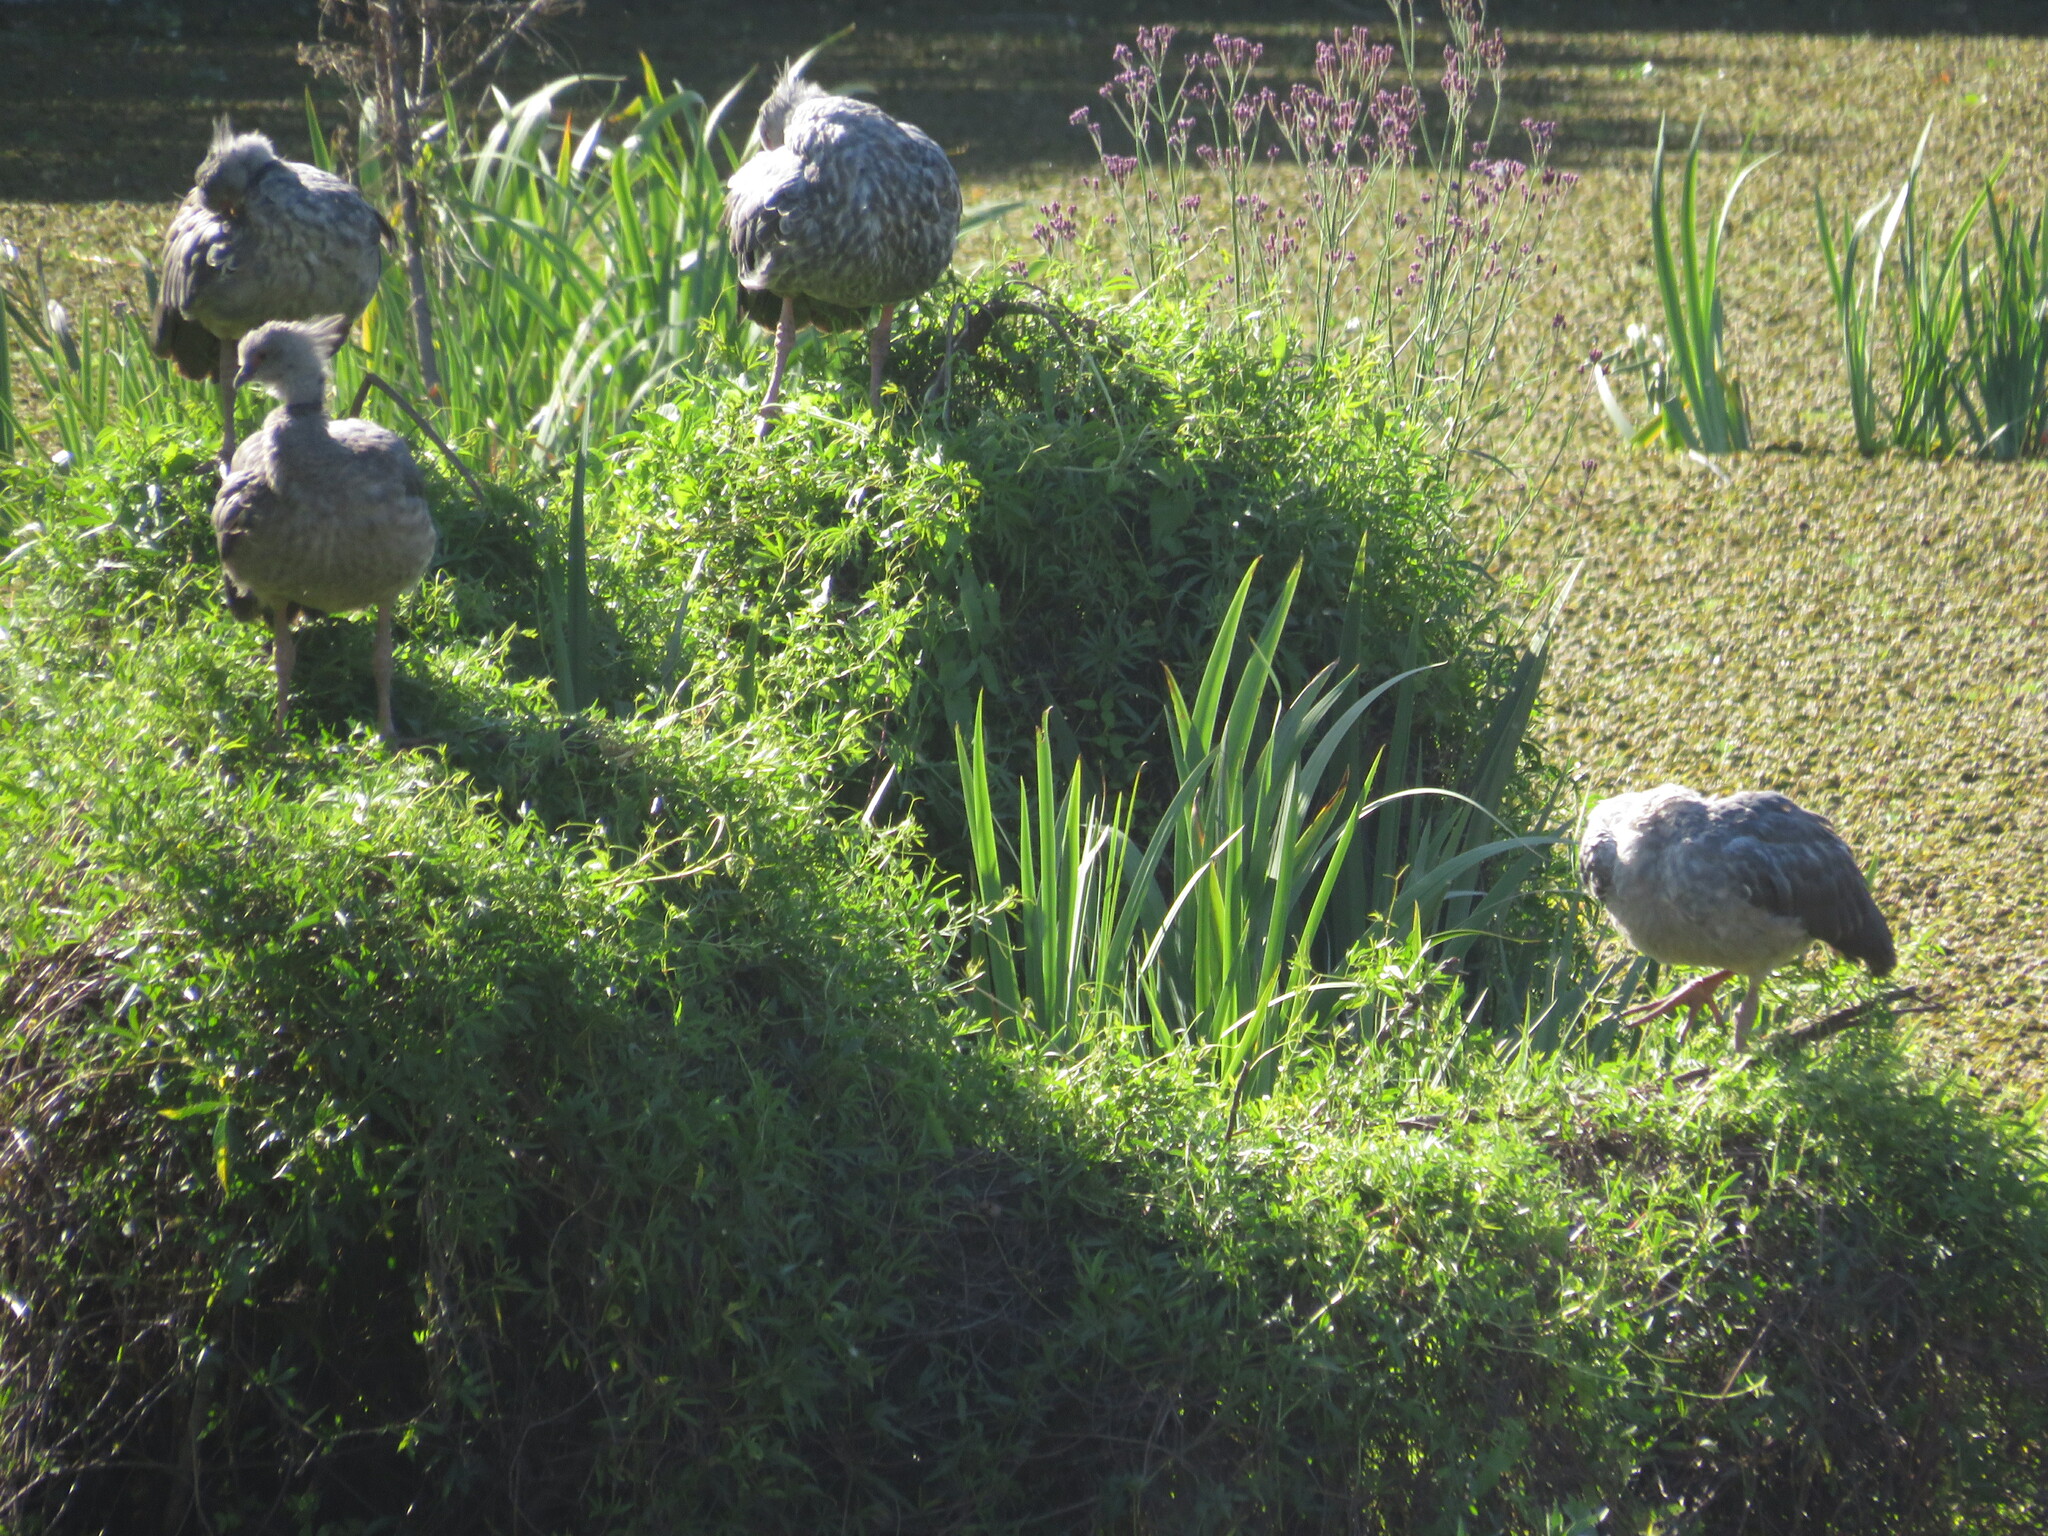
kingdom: Animalia
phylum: Chordata
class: Aves
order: Anseriformes
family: Anhimidae
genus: Chauna
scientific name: Chauna torquata
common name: Southern screamer
